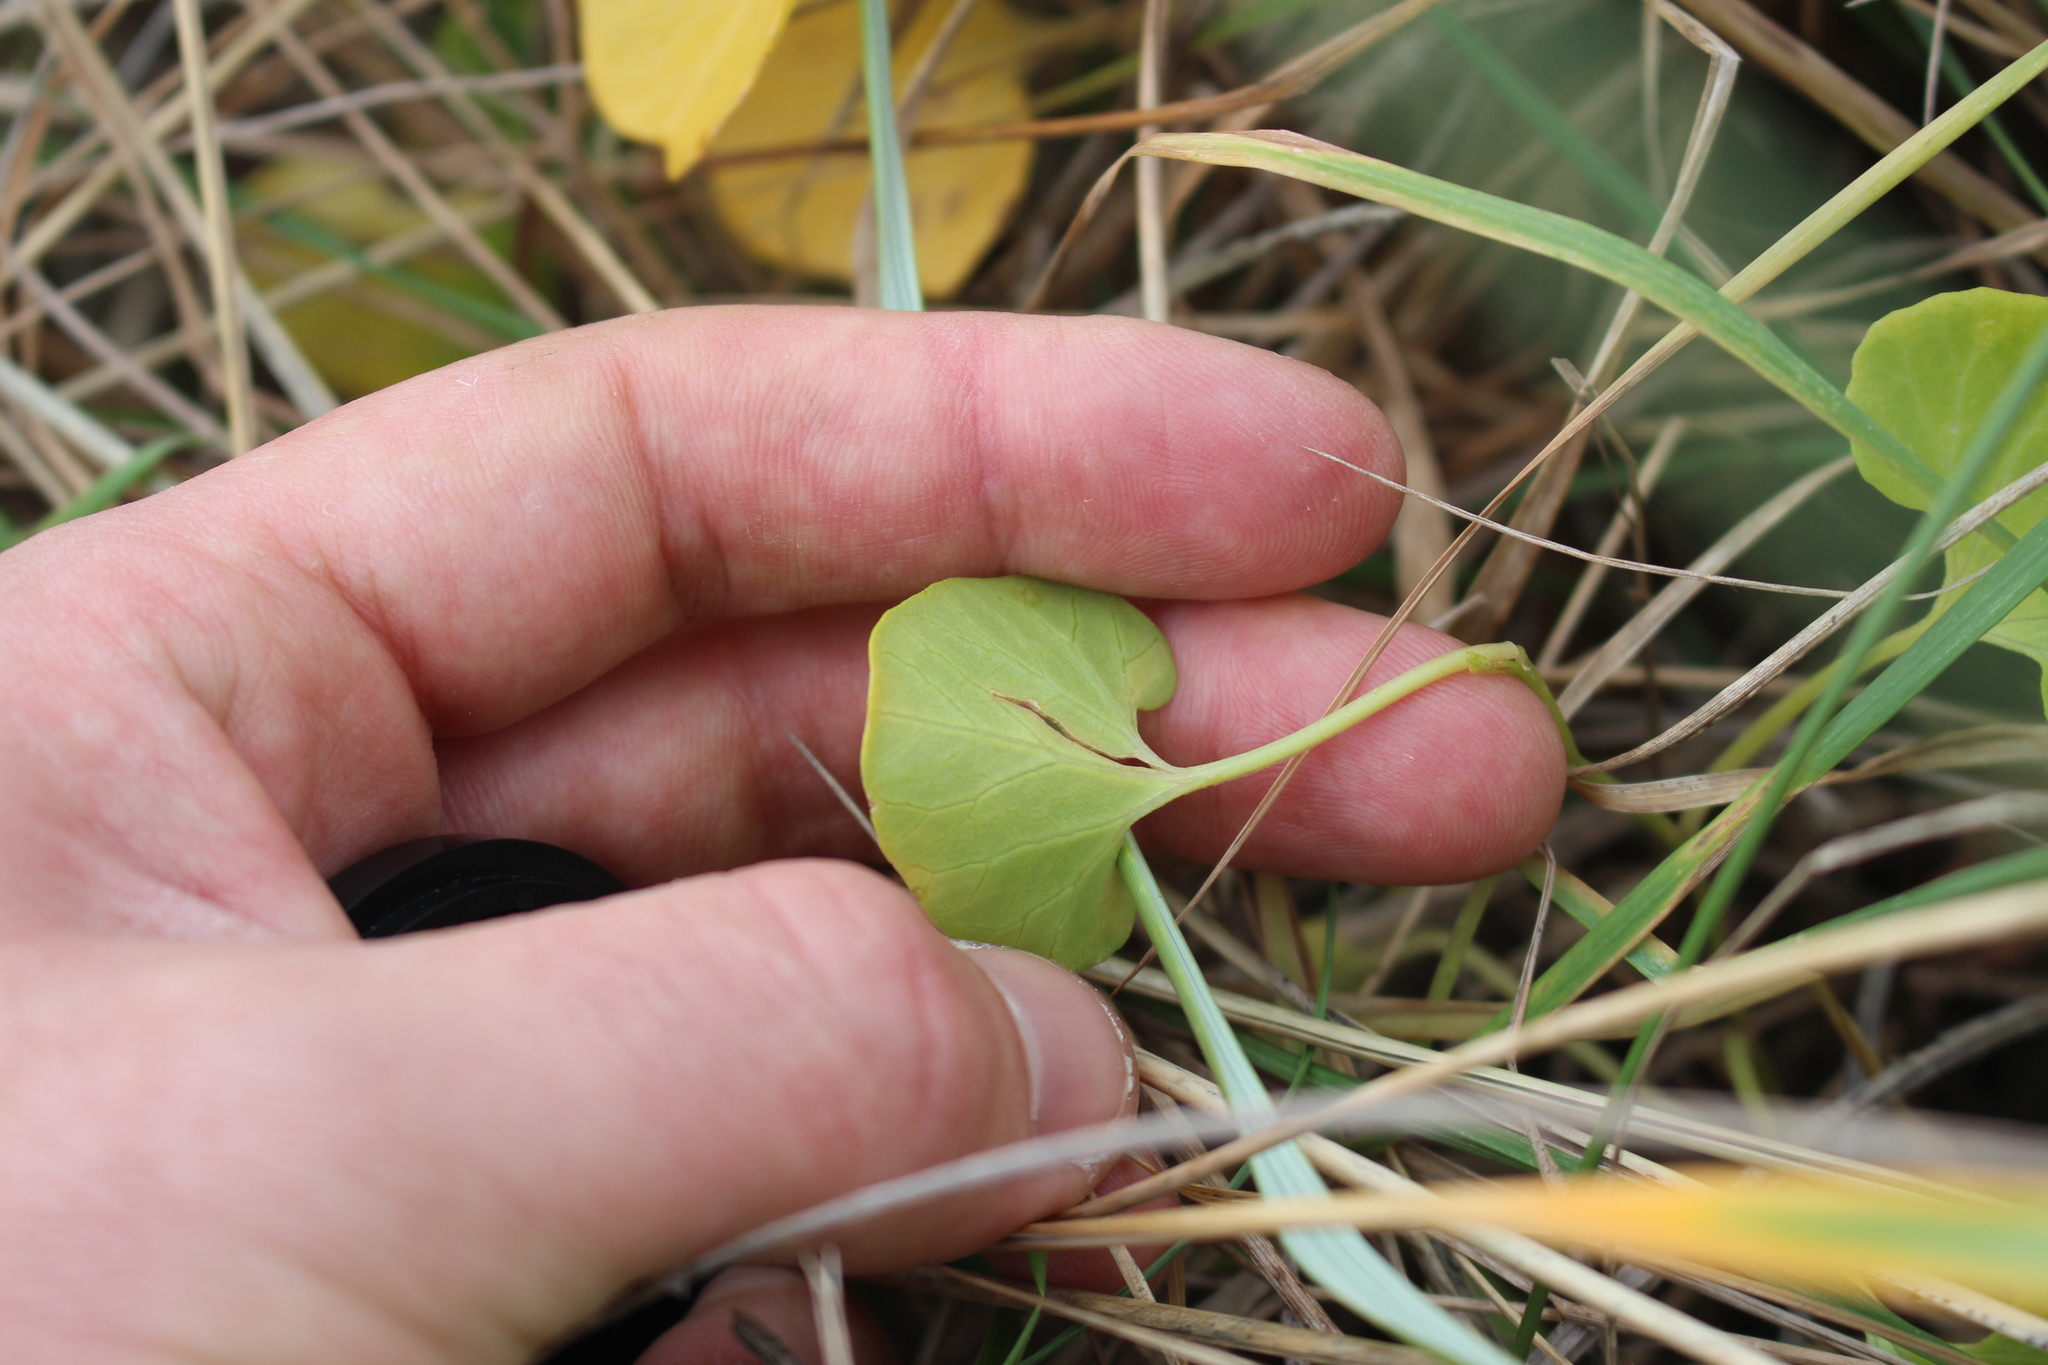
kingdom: Plantae
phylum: Tracheophyta
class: Magnoliopsida
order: Solanales
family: Convolvulaceae
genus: Calystegia
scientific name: Calystegia soldanella
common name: Sea bindweed
